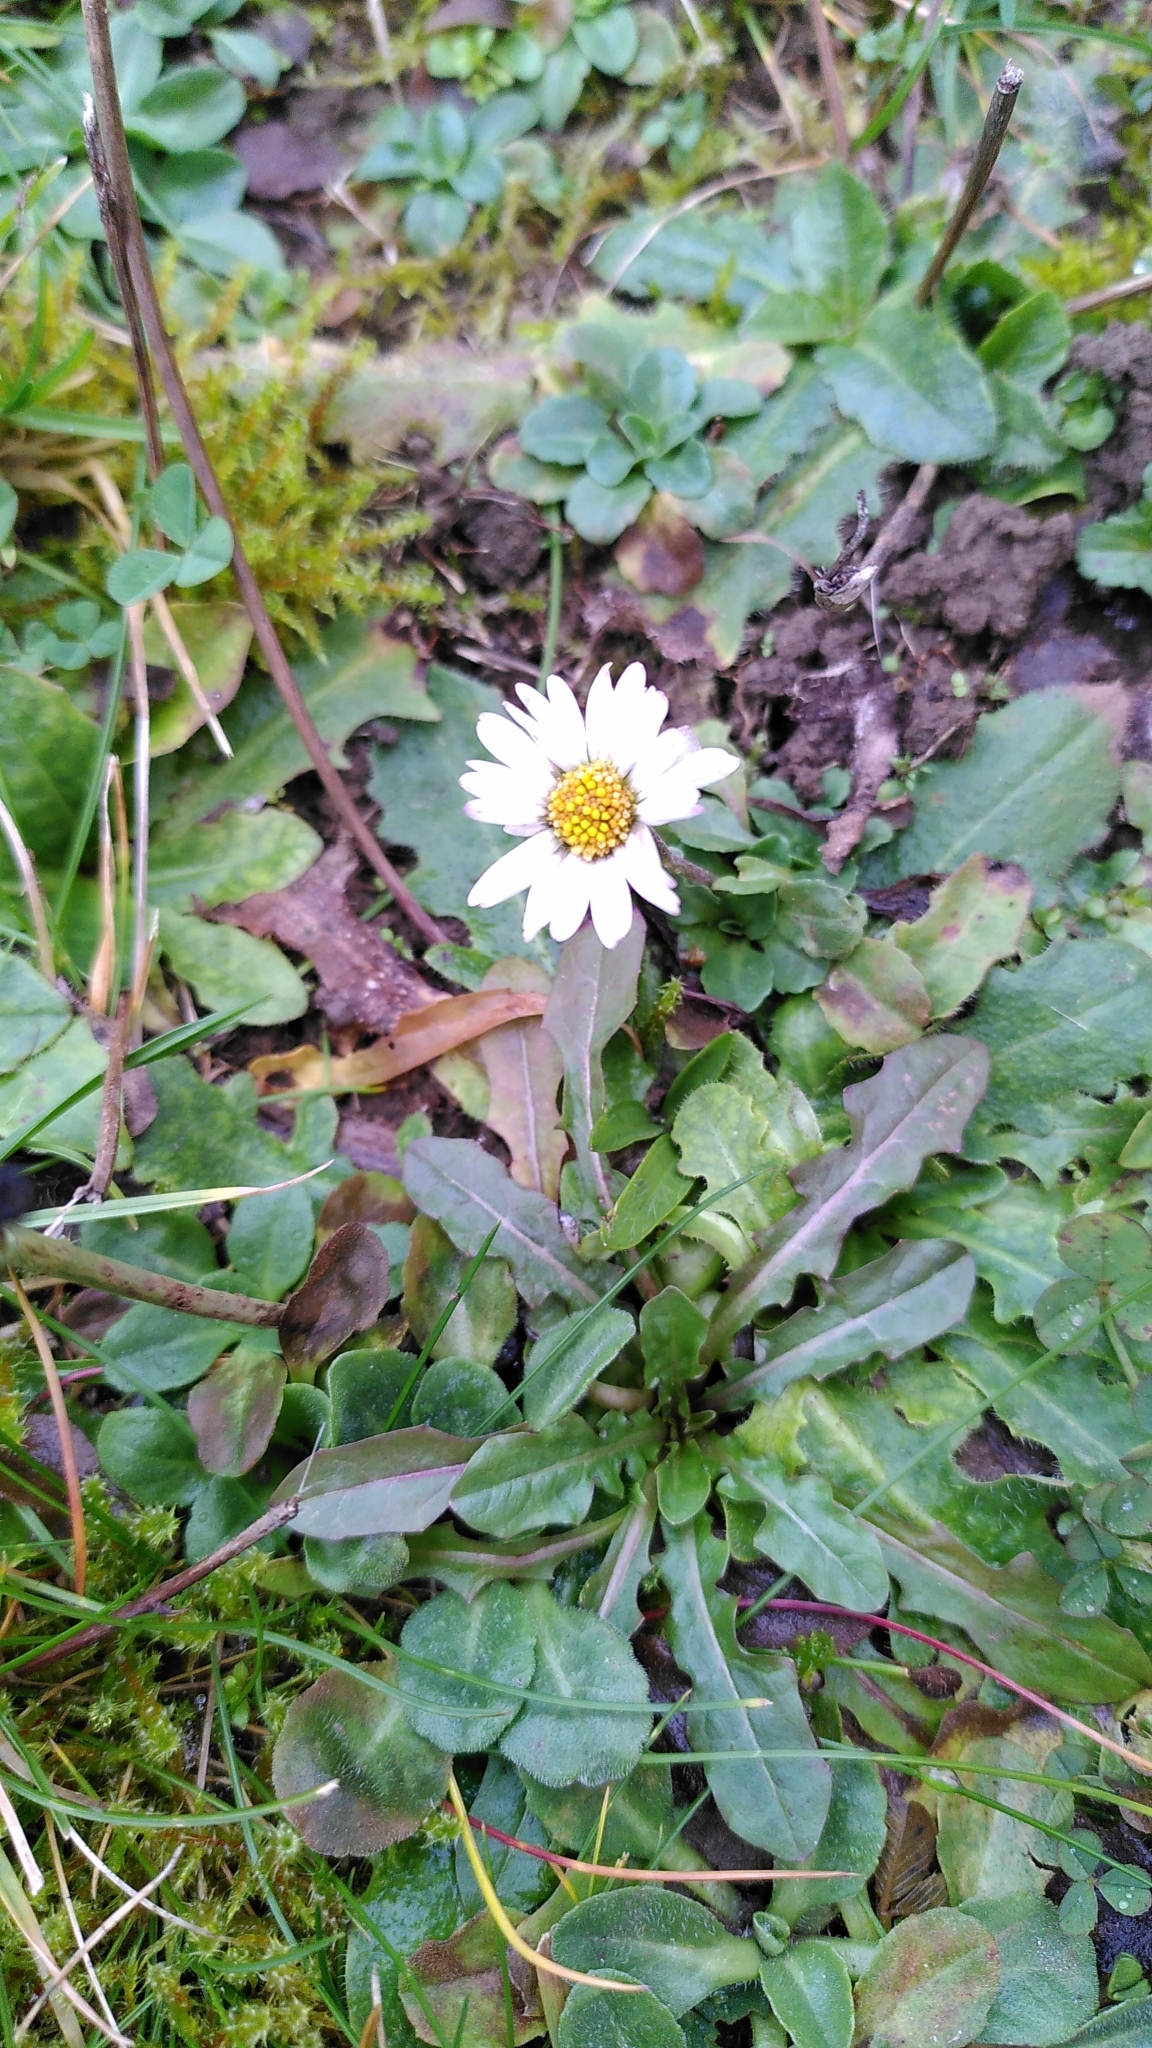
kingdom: Plantae
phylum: Tracheophyta
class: Magnoliopsida
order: Asterales
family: Asteraceae
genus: Bellis
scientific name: Bellis perennis
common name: Lawndaisy
